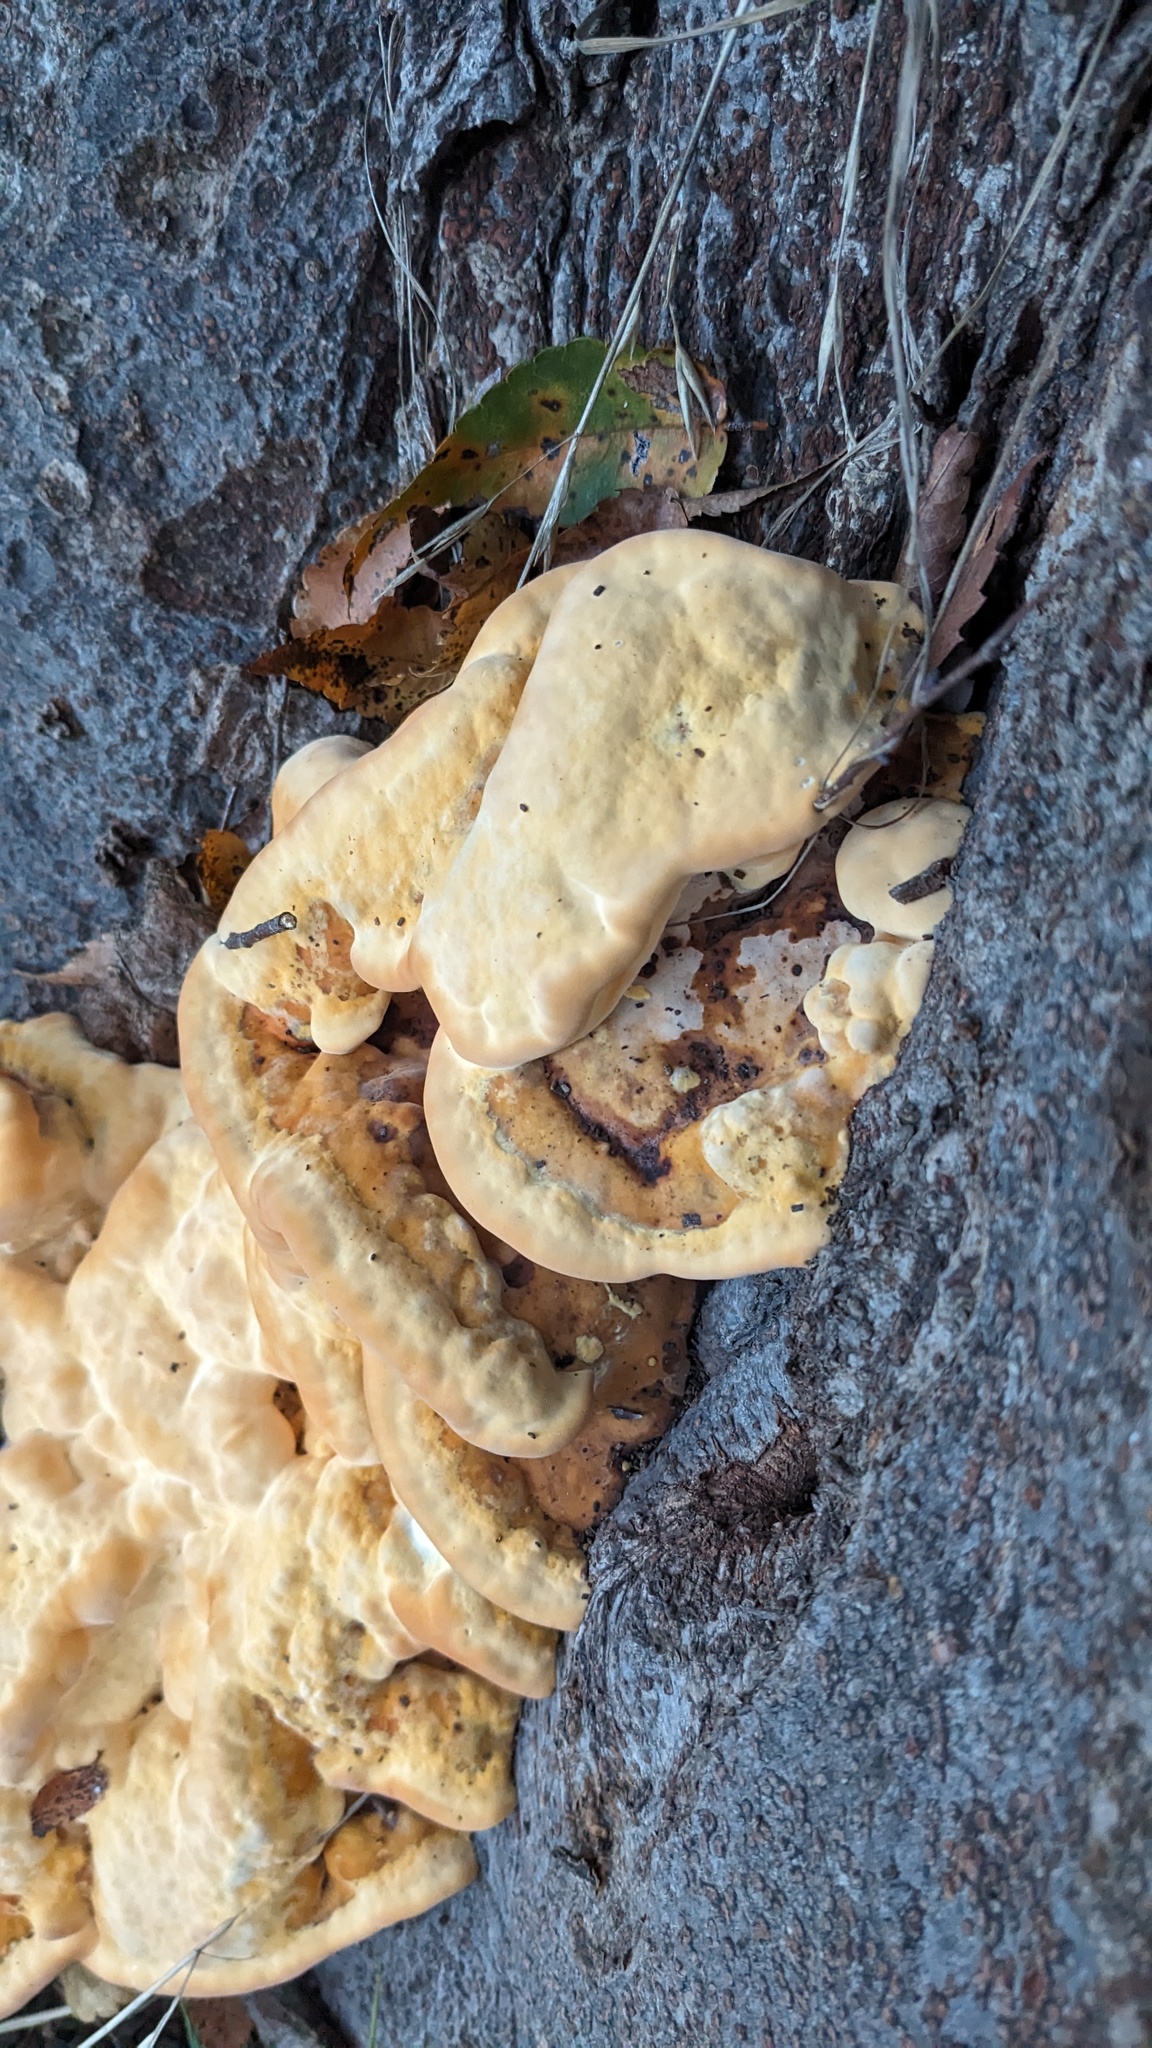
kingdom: Fungi
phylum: Basidiomycota
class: Agaricomycetes
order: Polyporales
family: Polyporaceae
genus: Vanderbylia
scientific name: Vanderbylia fraxinea
